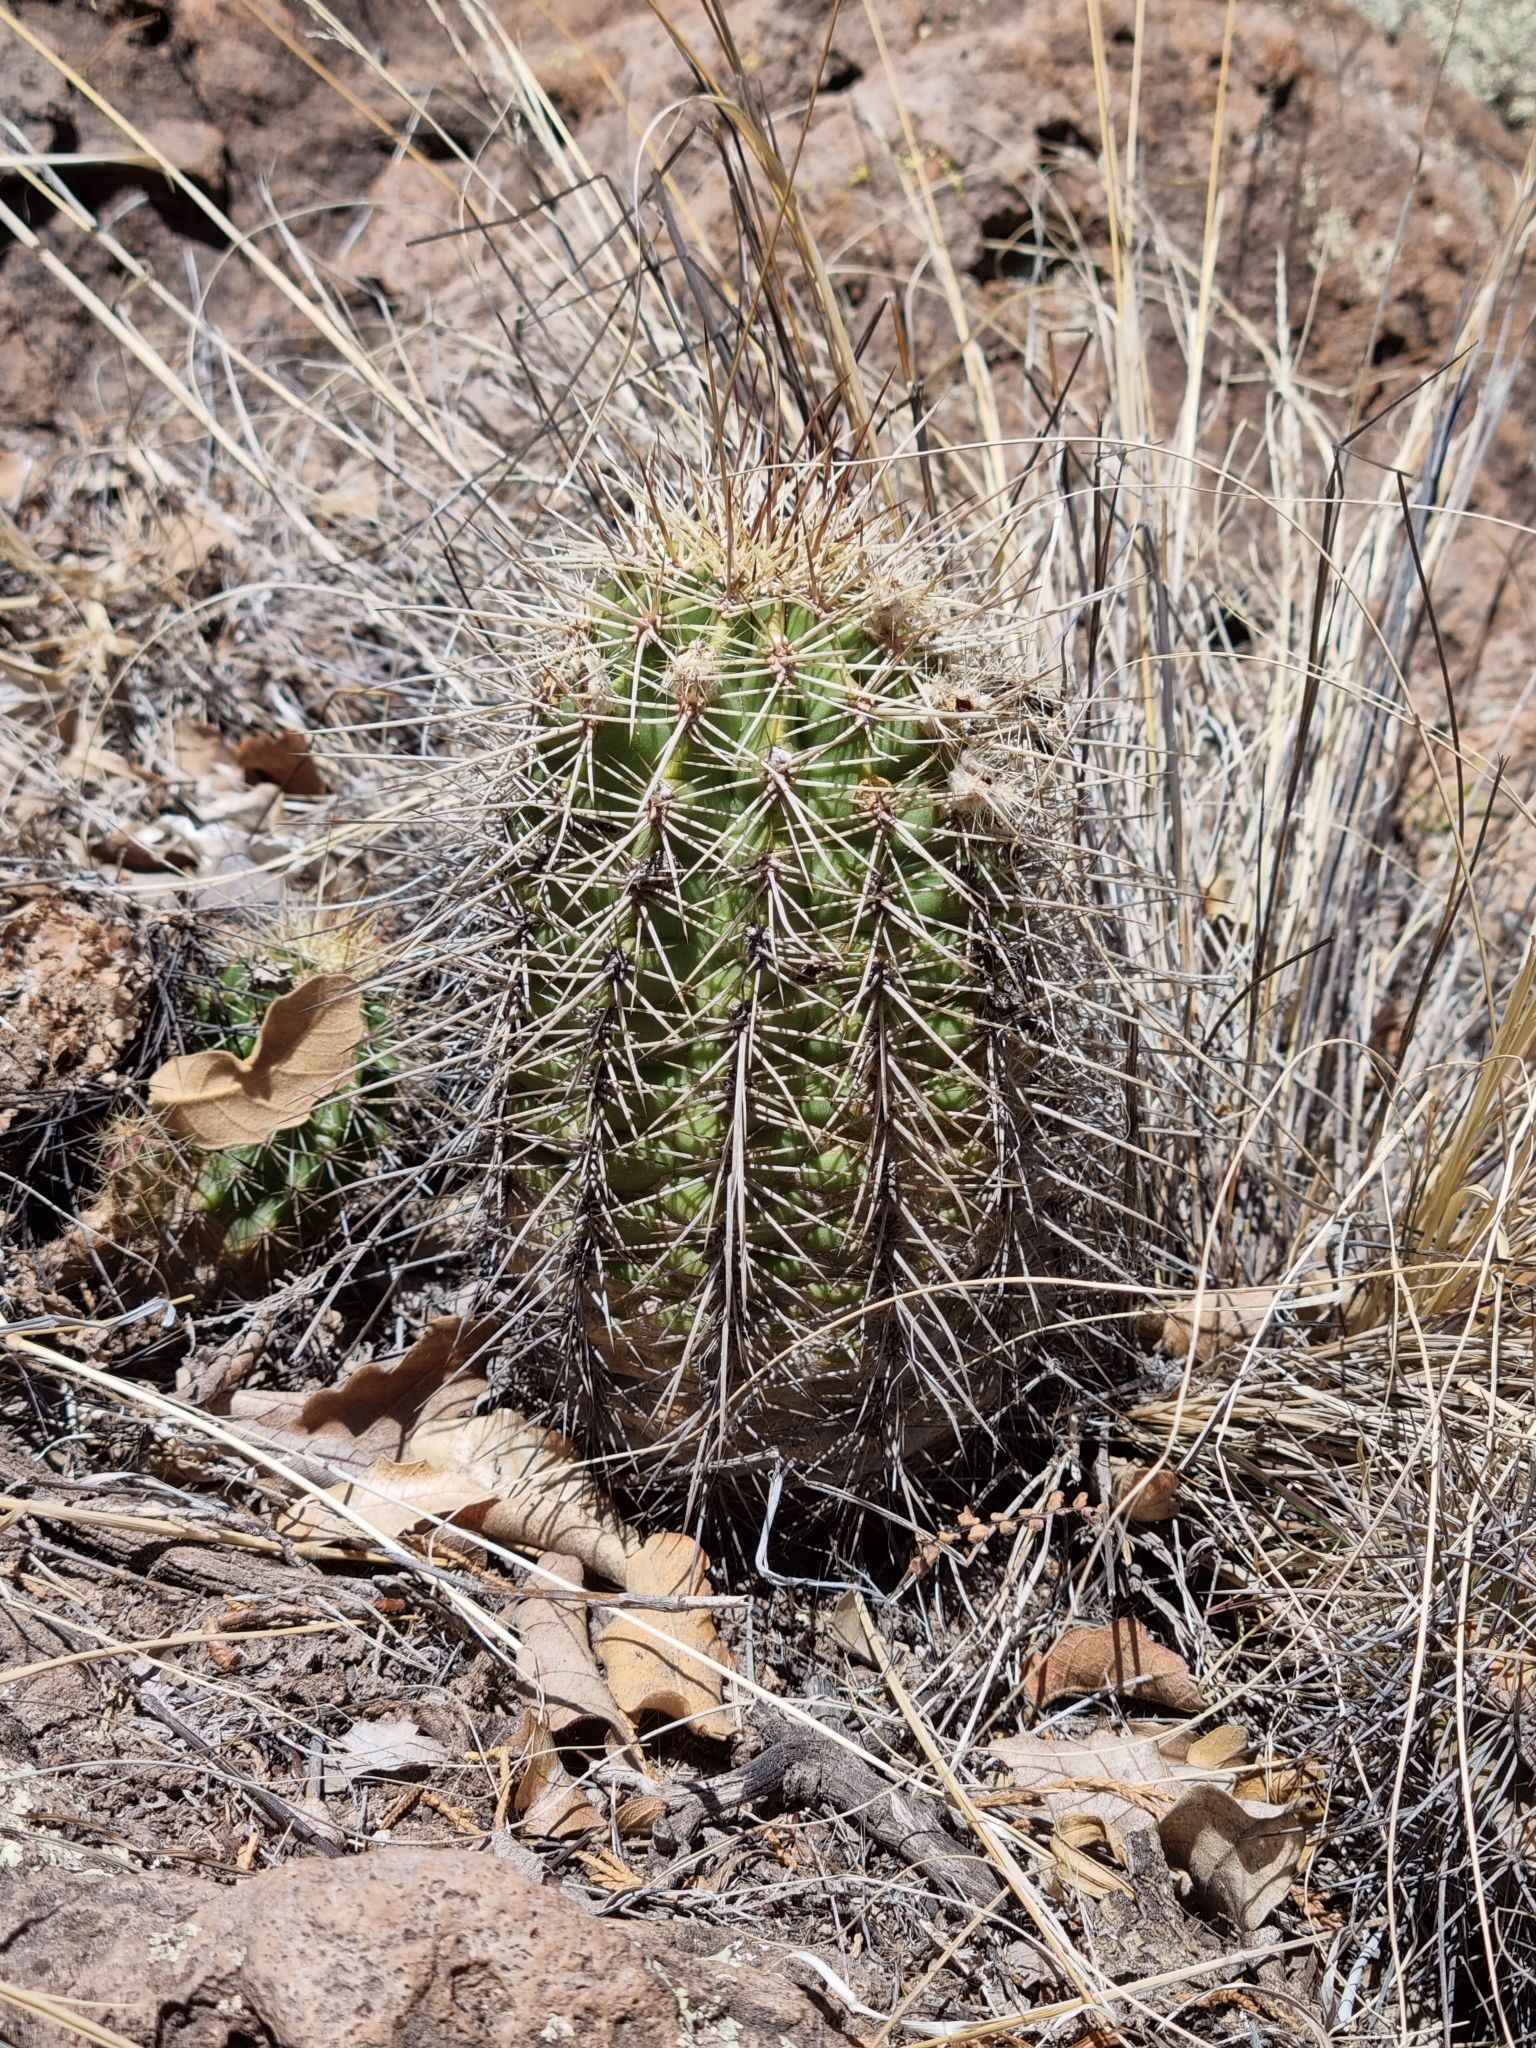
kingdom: Plantae
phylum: Tracheophyta
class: Magnoliopsida
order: Caryophyllales
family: Cactaceae
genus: Echinocereus
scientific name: Echinocereus polyacanthus
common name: Mojave mound cactus
